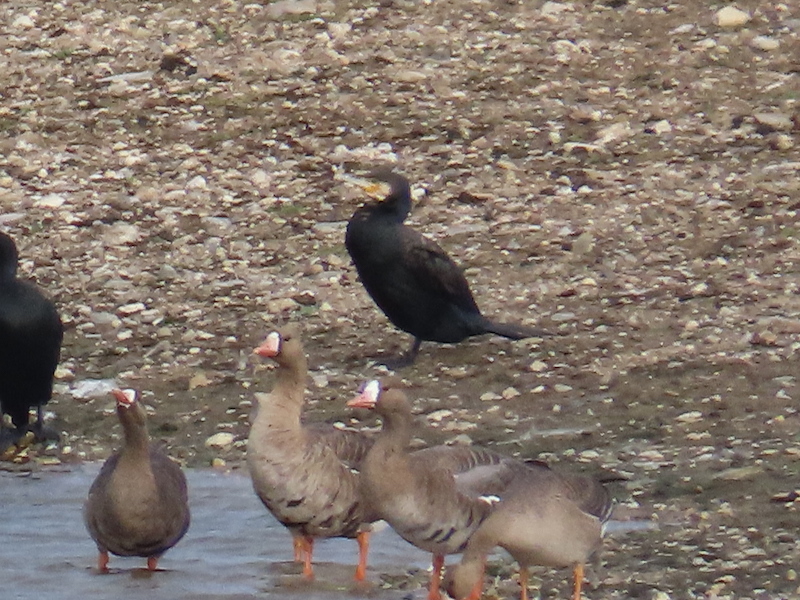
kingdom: Animalia
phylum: Chordata
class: Aves
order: Suliformes
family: Phalacrocoracidae
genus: Phalacrocorax
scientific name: Phalacrocorax carbo
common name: Great cormorant
